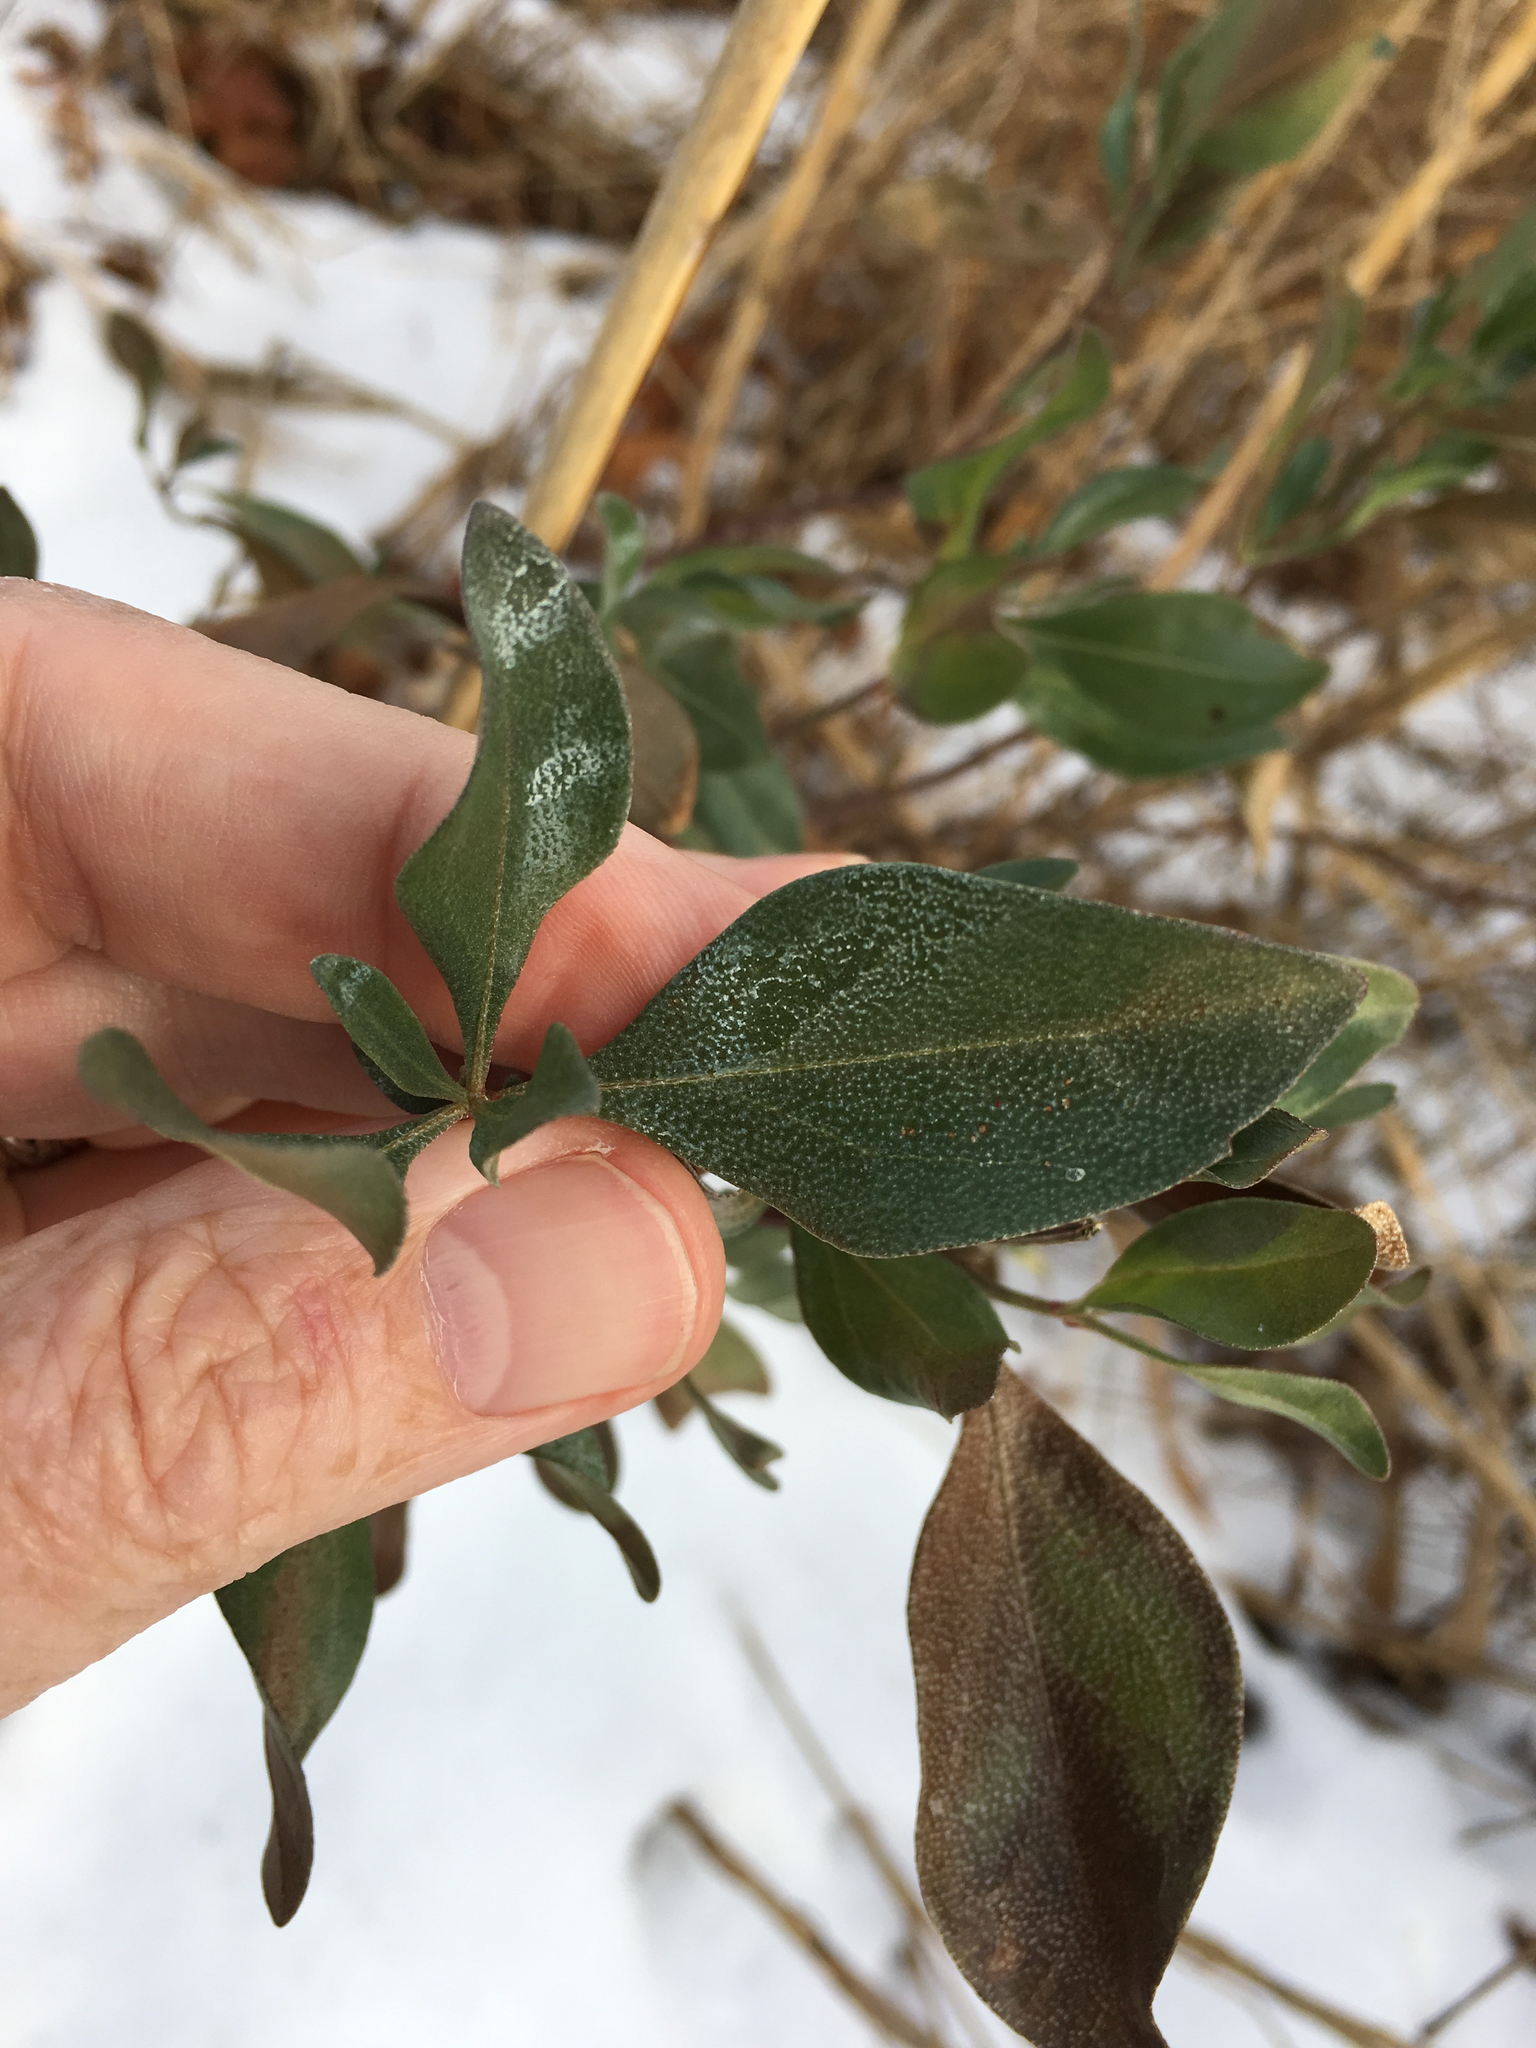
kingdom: Plantae
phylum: Tracheophyta
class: Magnoliopsida
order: Asterales
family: Asteraceae
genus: Baccharis
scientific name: Baccharis halimifolia
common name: Eastern baccharis
